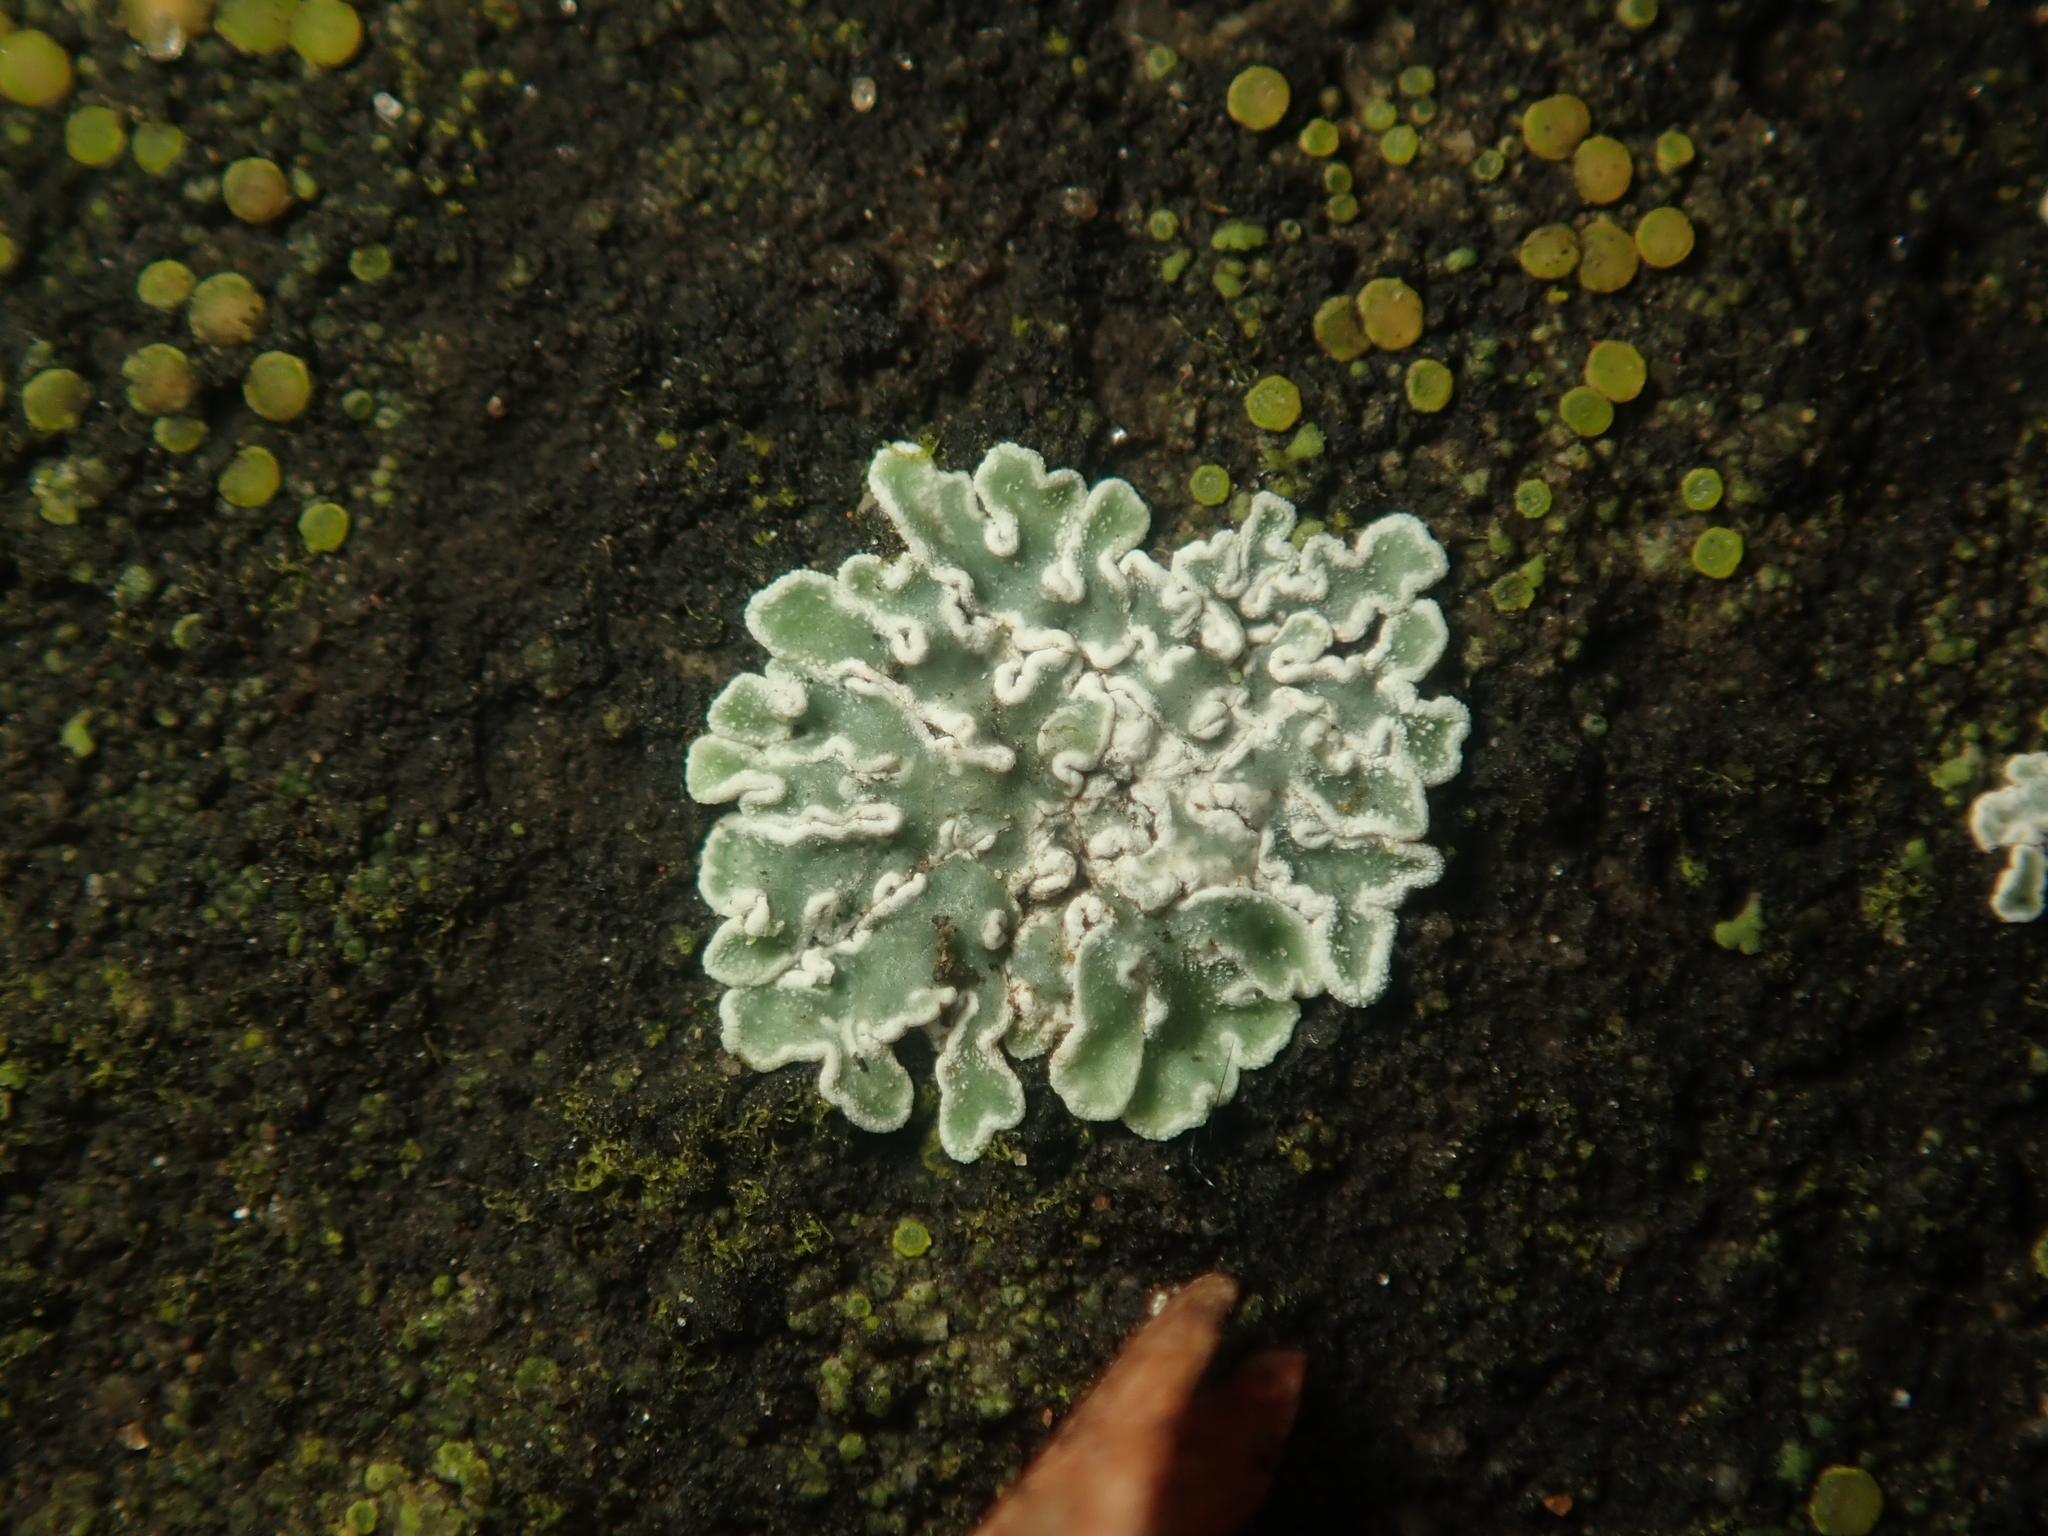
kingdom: Fungi
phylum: Ascomycota
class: Lecanoromycetes
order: Lecanorales
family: Lecanoraceae
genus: Protoparmeliopsis
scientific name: Protoparmeliopsis muralis
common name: Stonewall rim lichen
